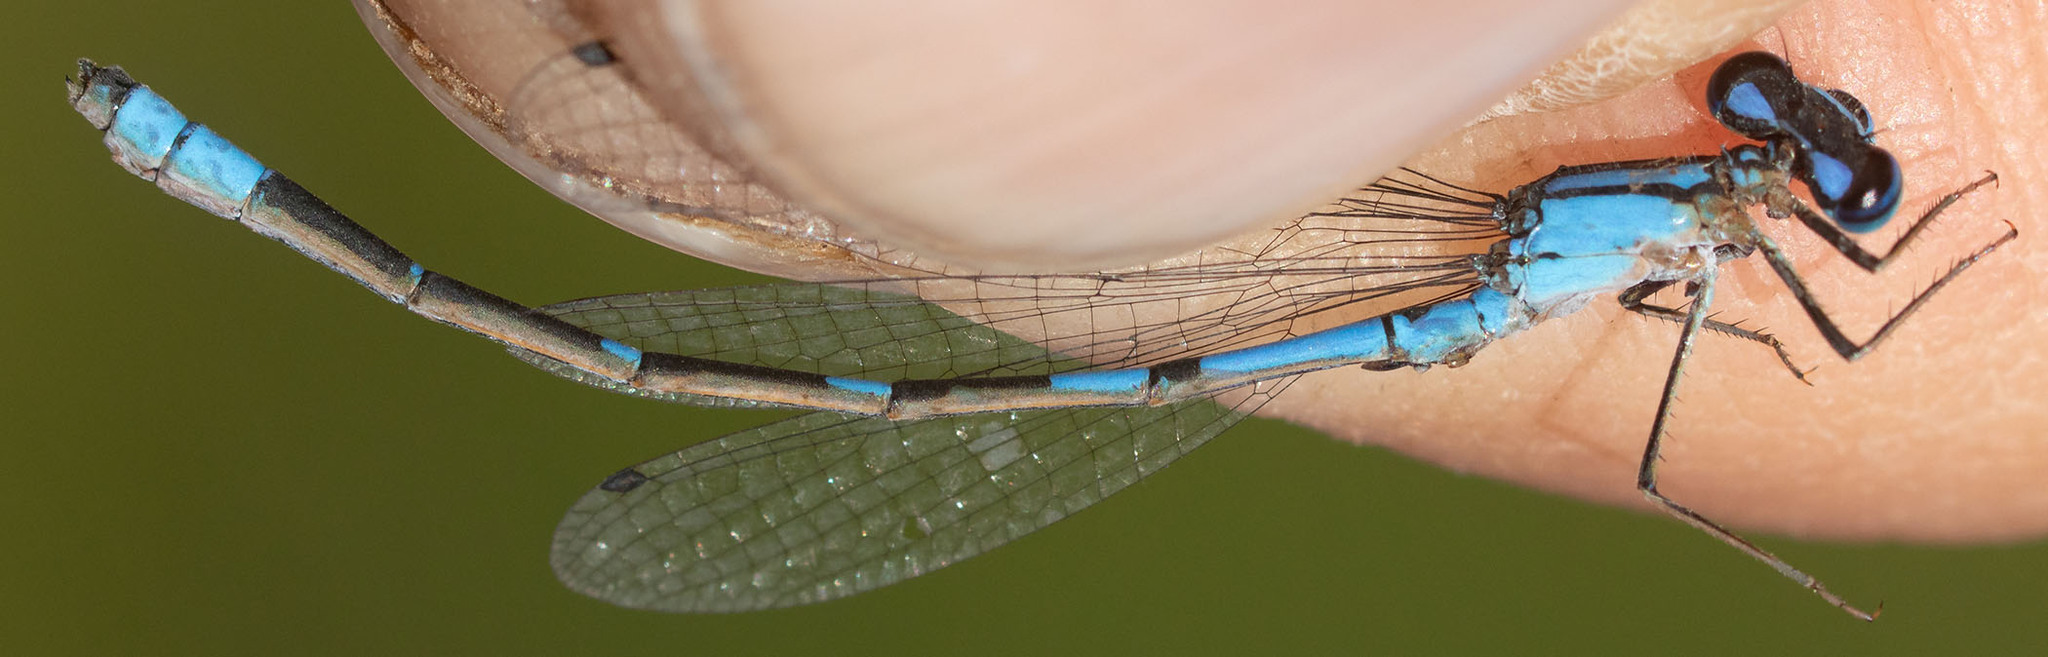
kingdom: Animalia
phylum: Arthropoda
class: Insecta
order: Odonata
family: Coenagrionidae
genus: Enallagma
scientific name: Enallagma praevarum
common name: Arroyo bluet
